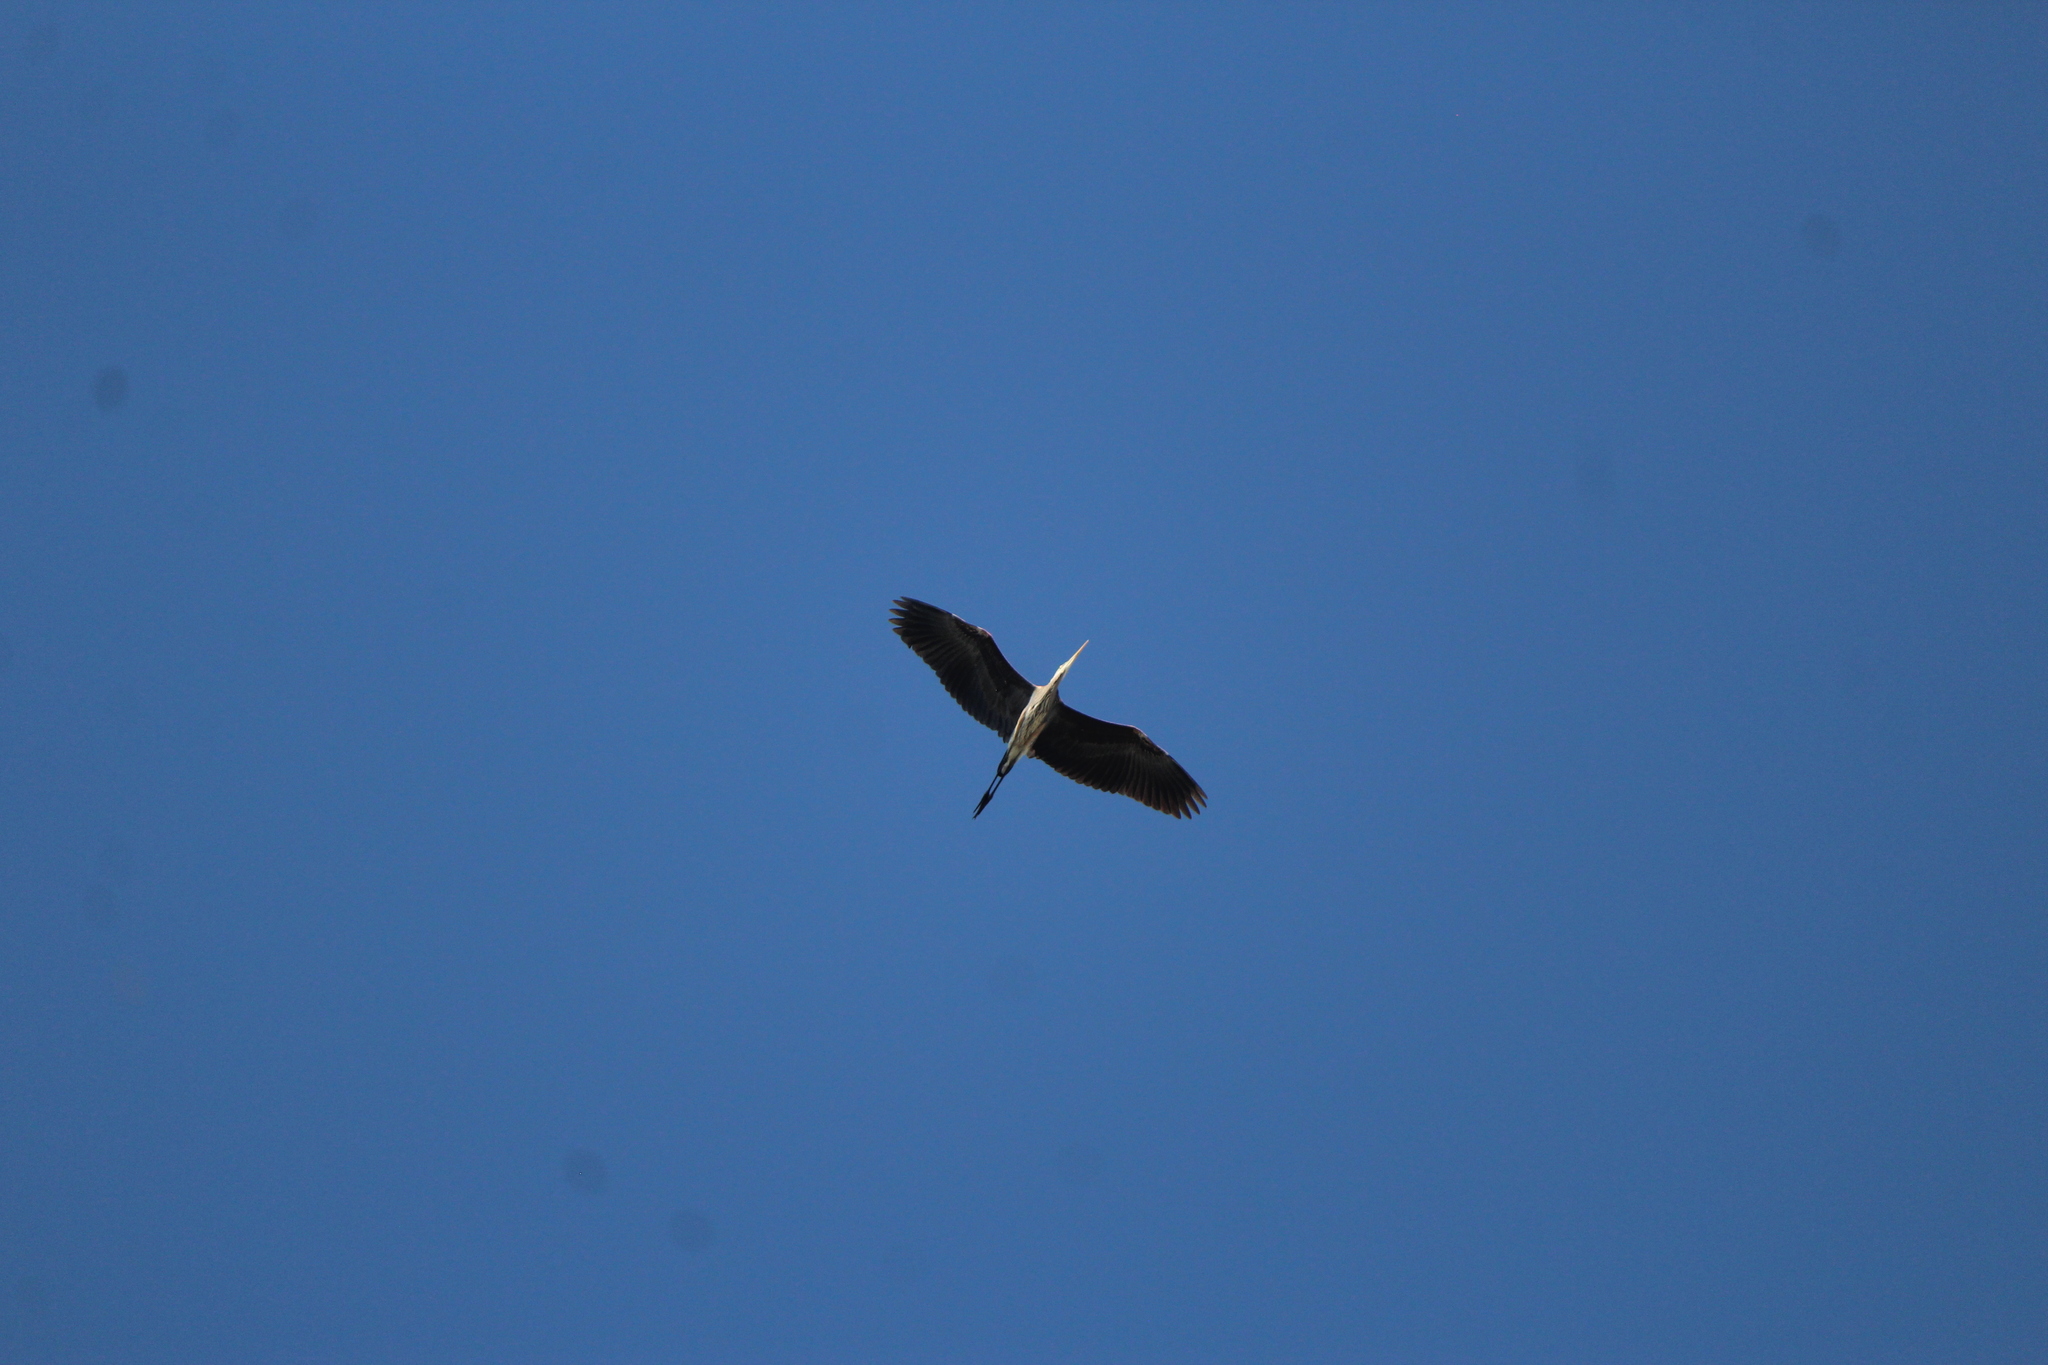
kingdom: Animalia
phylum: Chordata
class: Aves
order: Pelecaniformes
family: Ardeidae
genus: Ardea
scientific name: Ardea herodias
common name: Great blue heron
